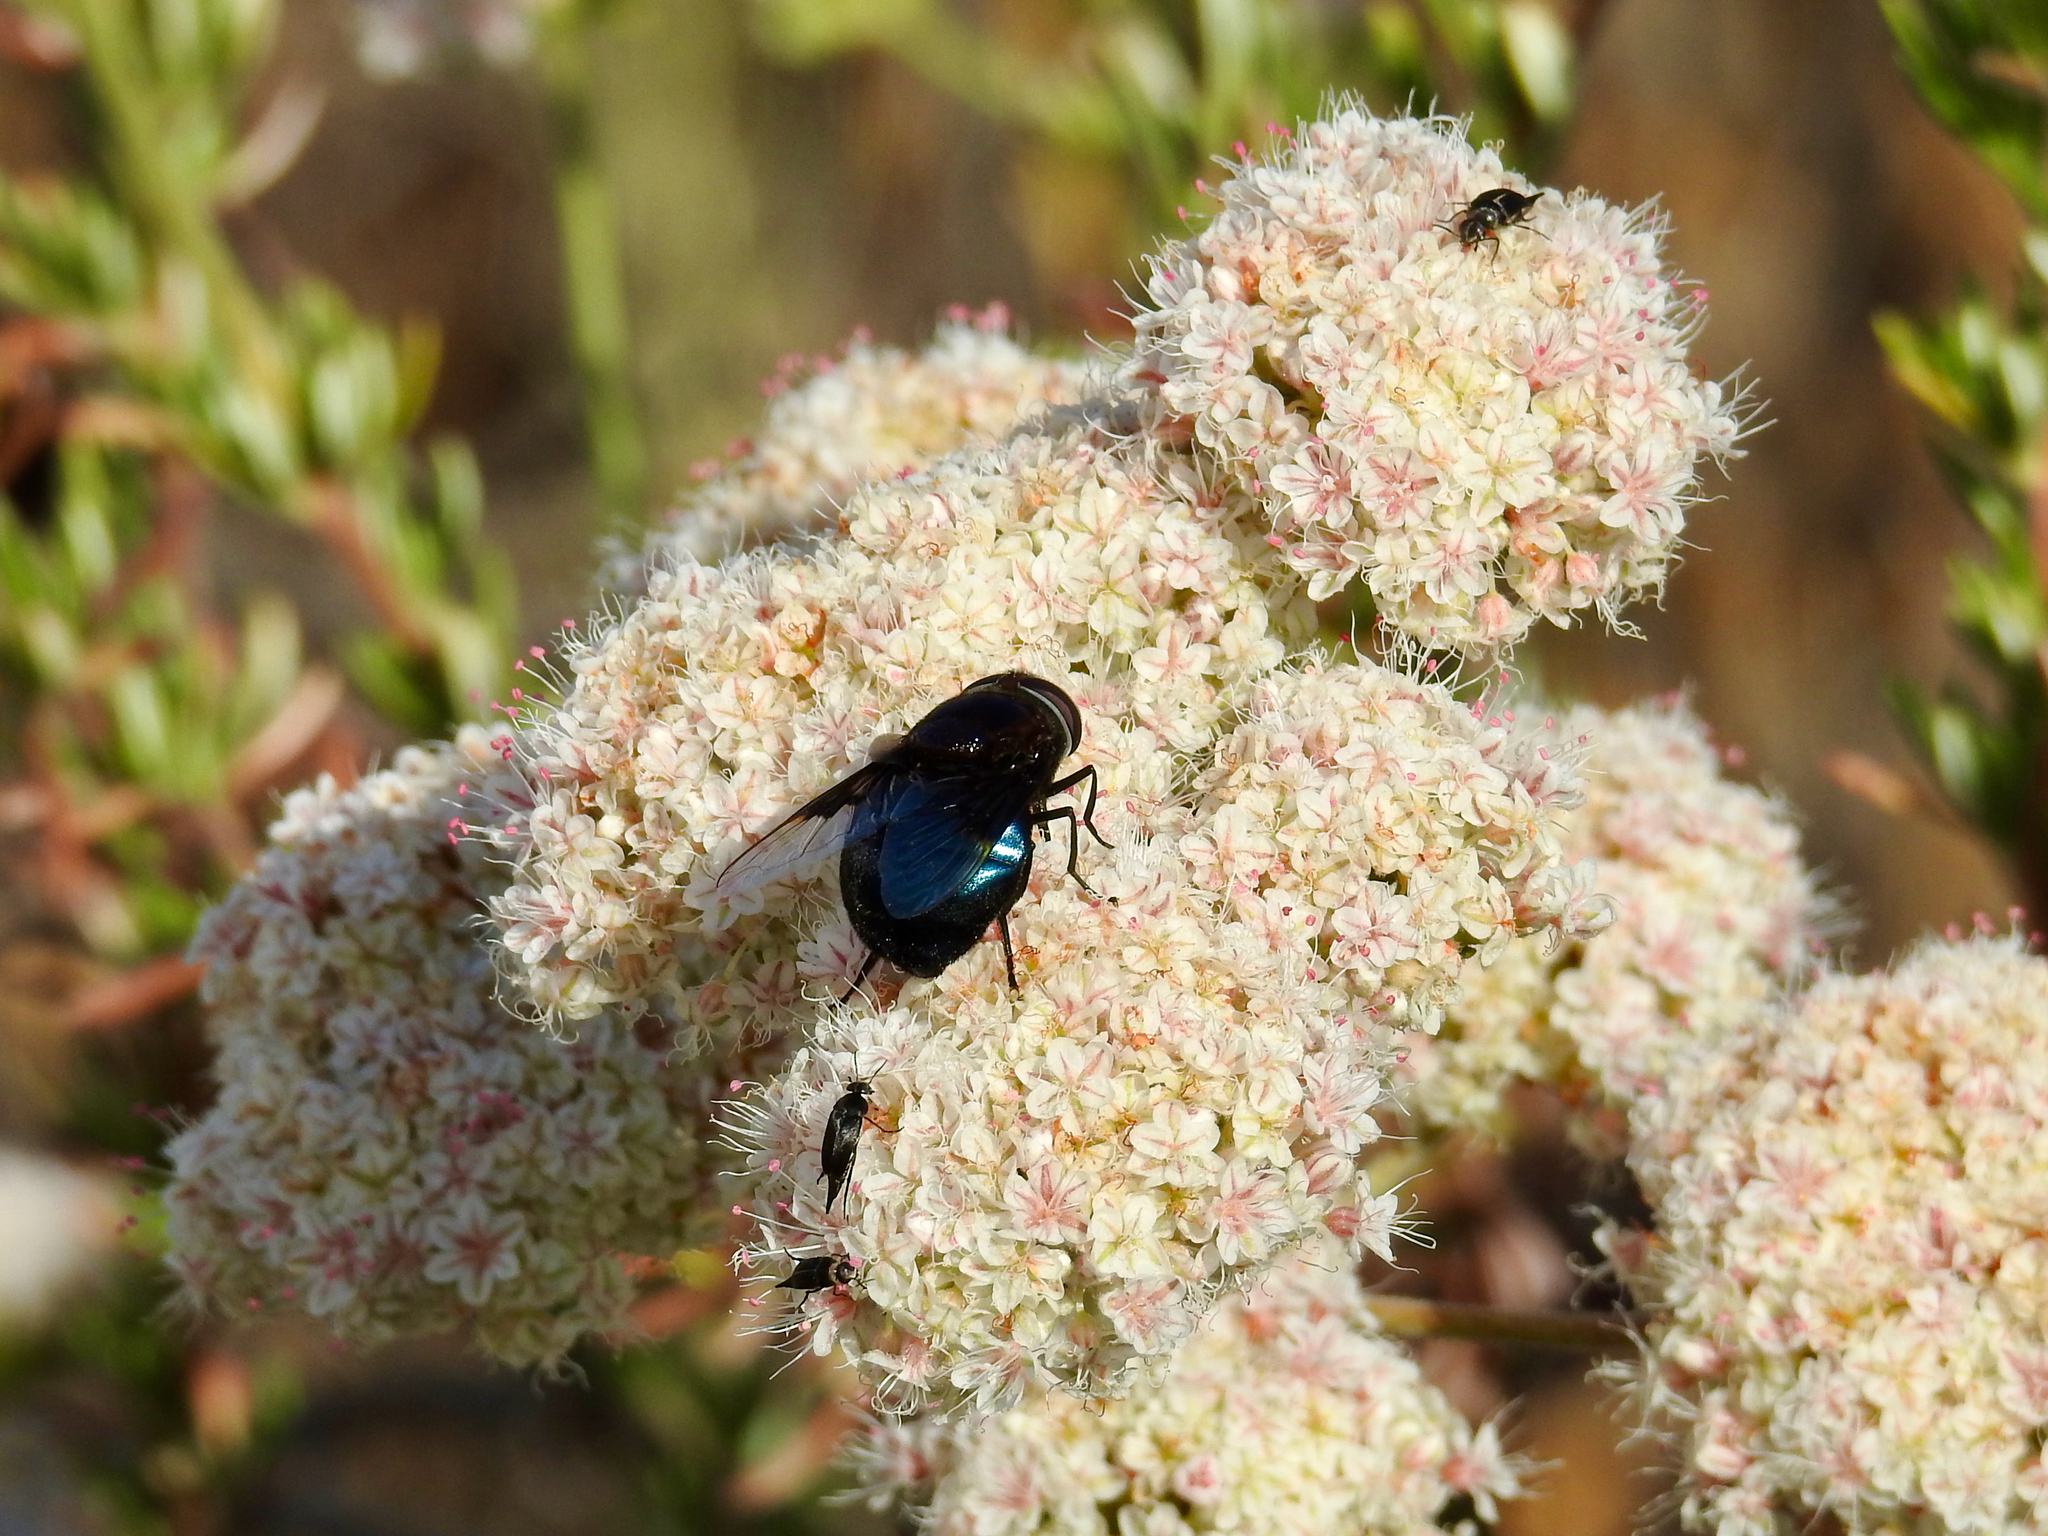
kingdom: Animalia
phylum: Arthropoda
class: Insecta
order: Diptera
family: Syrphidae
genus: Copestylum
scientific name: Copestylum mexicanum
